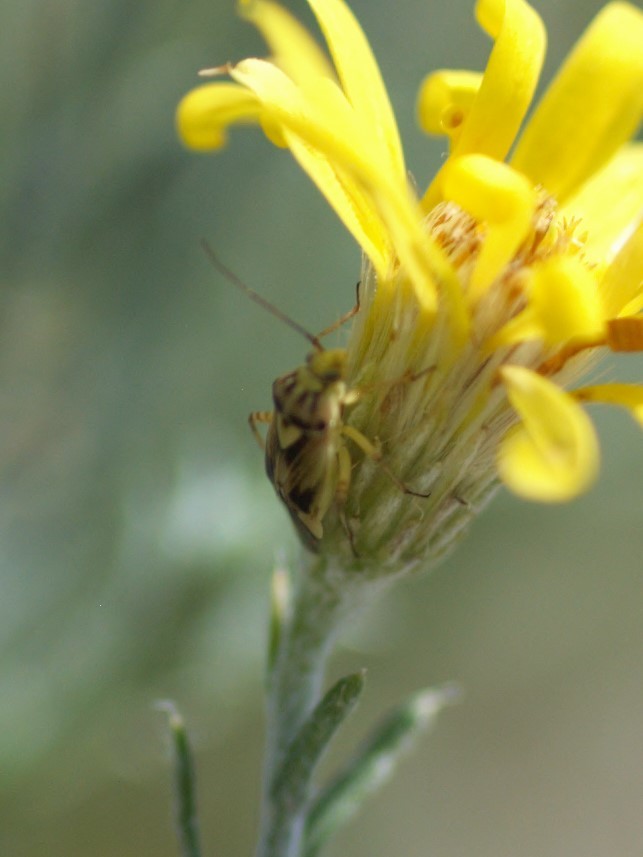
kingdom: Animalia
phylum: Arthropoda
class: Insecta
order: Hemiptera
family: Miridae
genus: Lygus
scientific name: Lygus atriflavus
